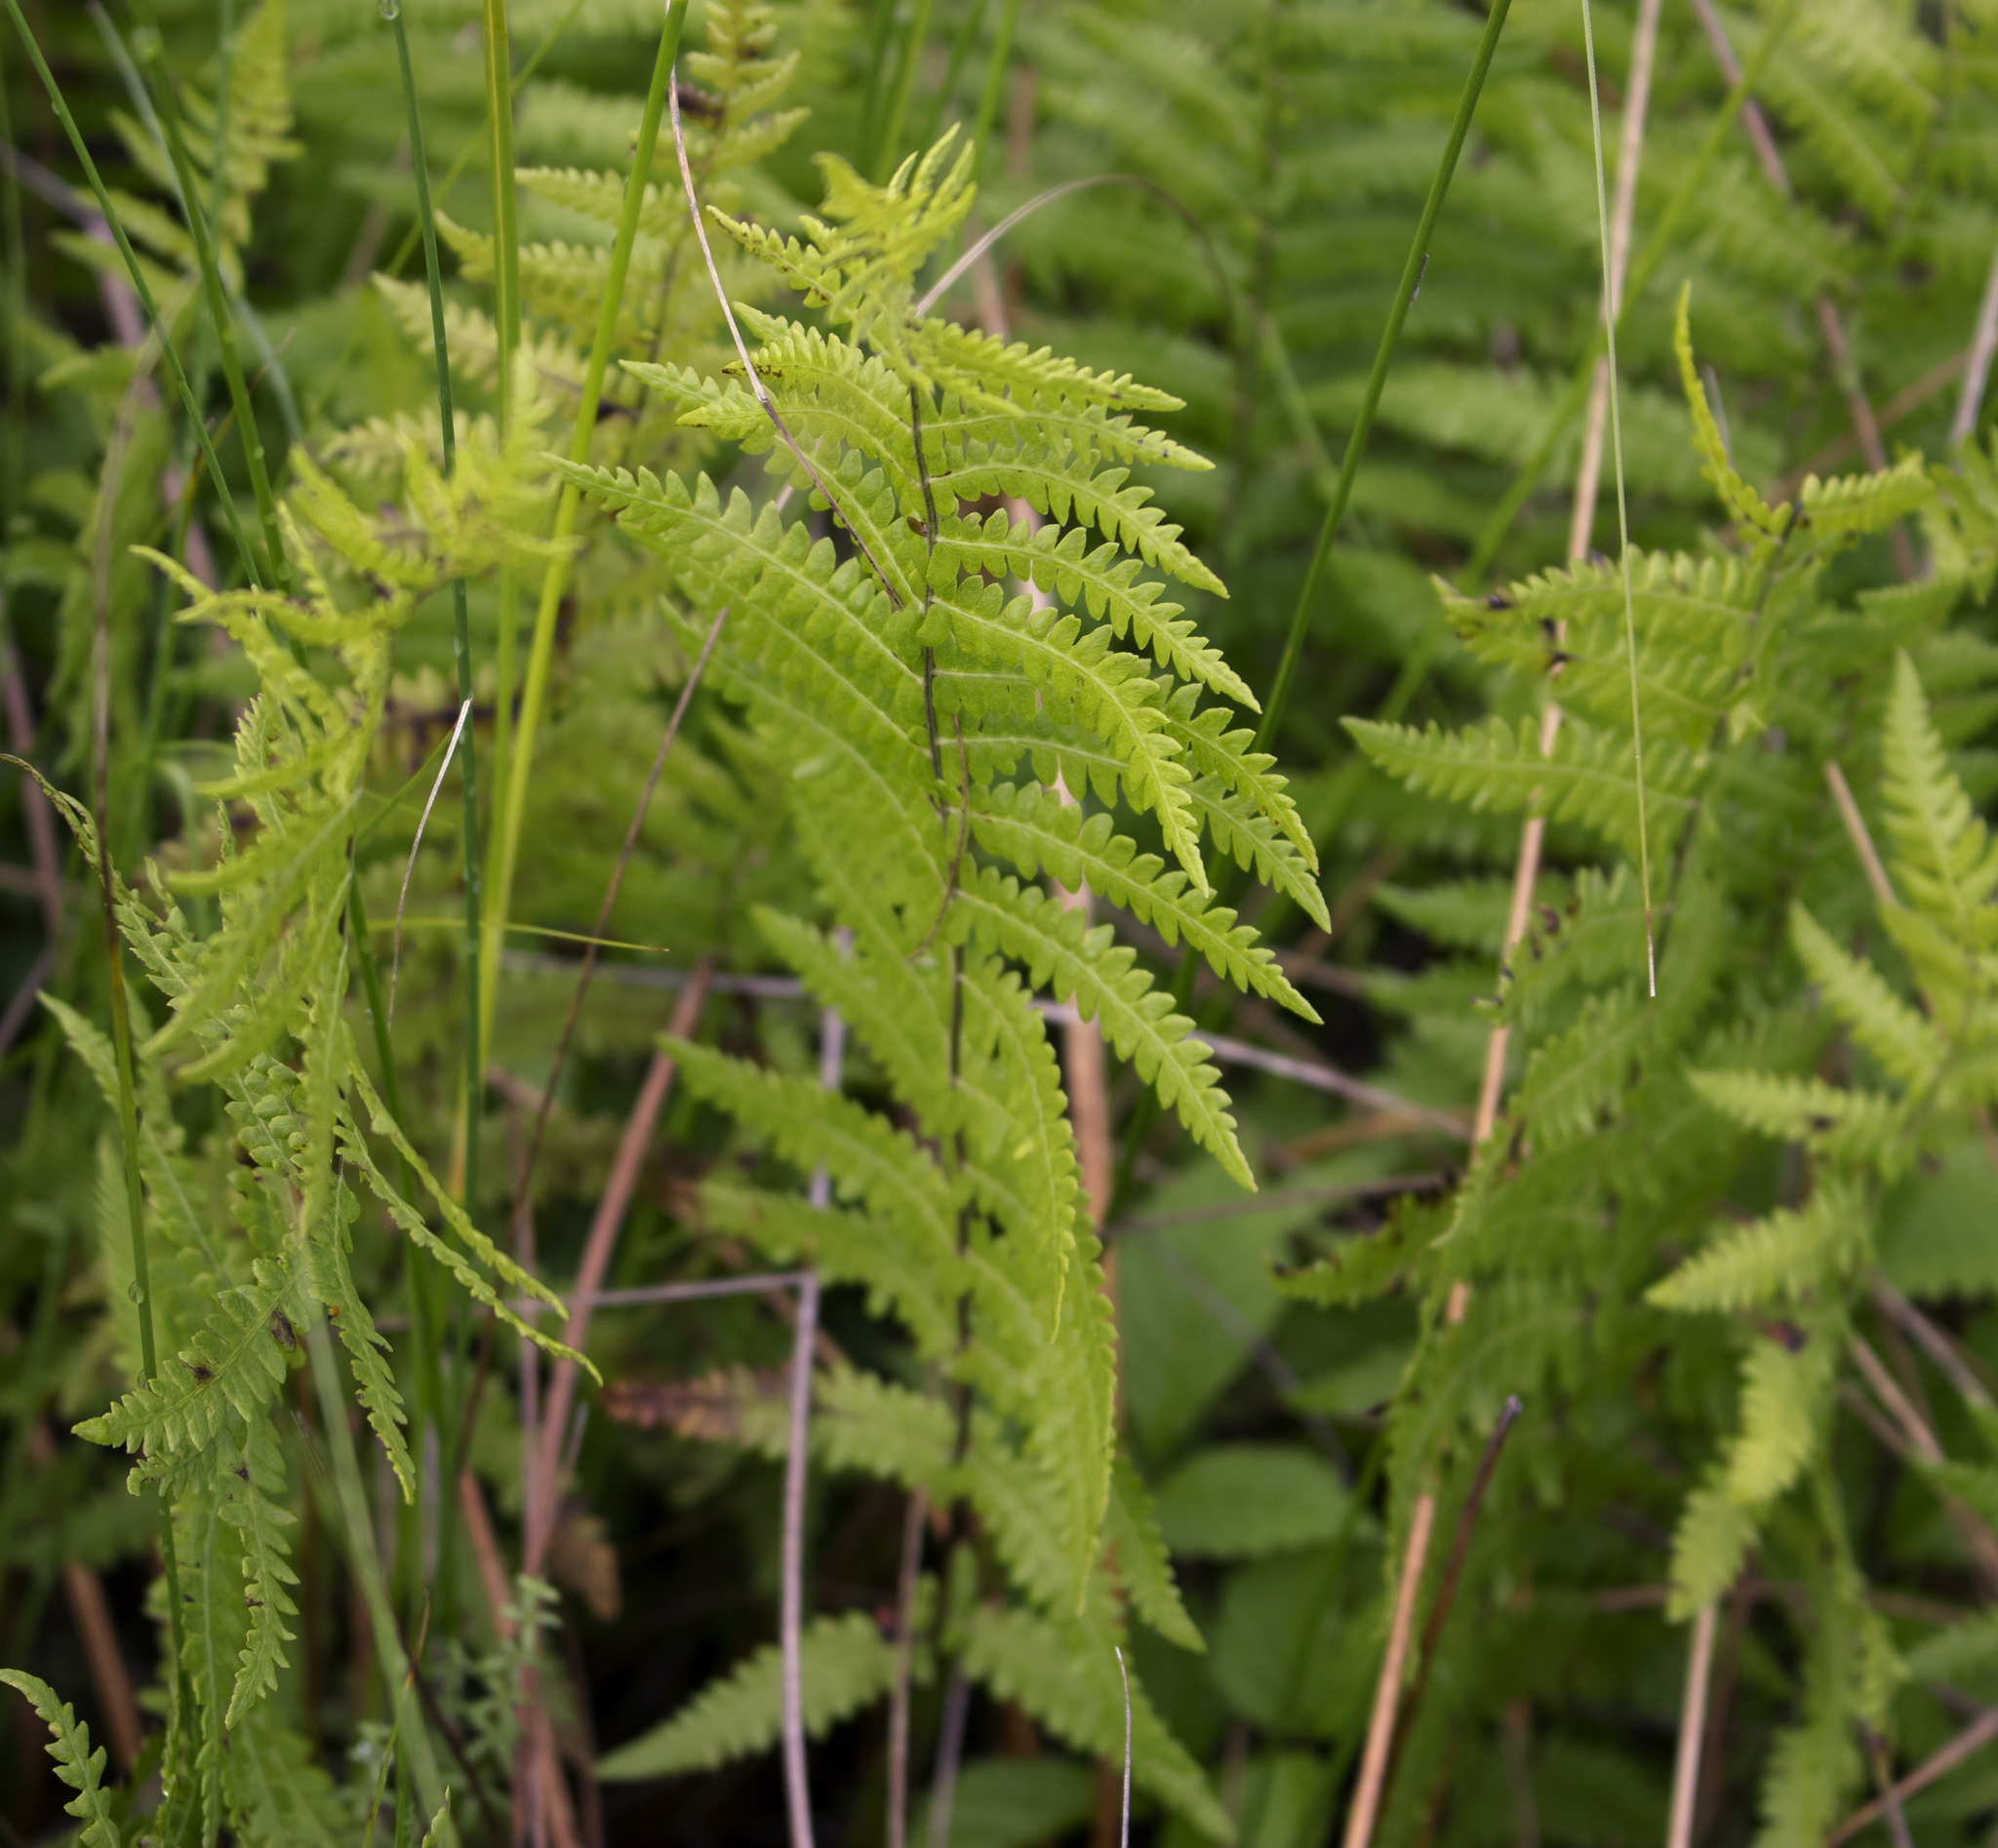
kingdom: Plantae
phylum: Tracheophyta
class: Polypodiopsida
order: Polypodiales
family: Thelypteridaceae
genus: Thelypteris
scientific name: Thelypteris palustris
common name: Marsh fern
